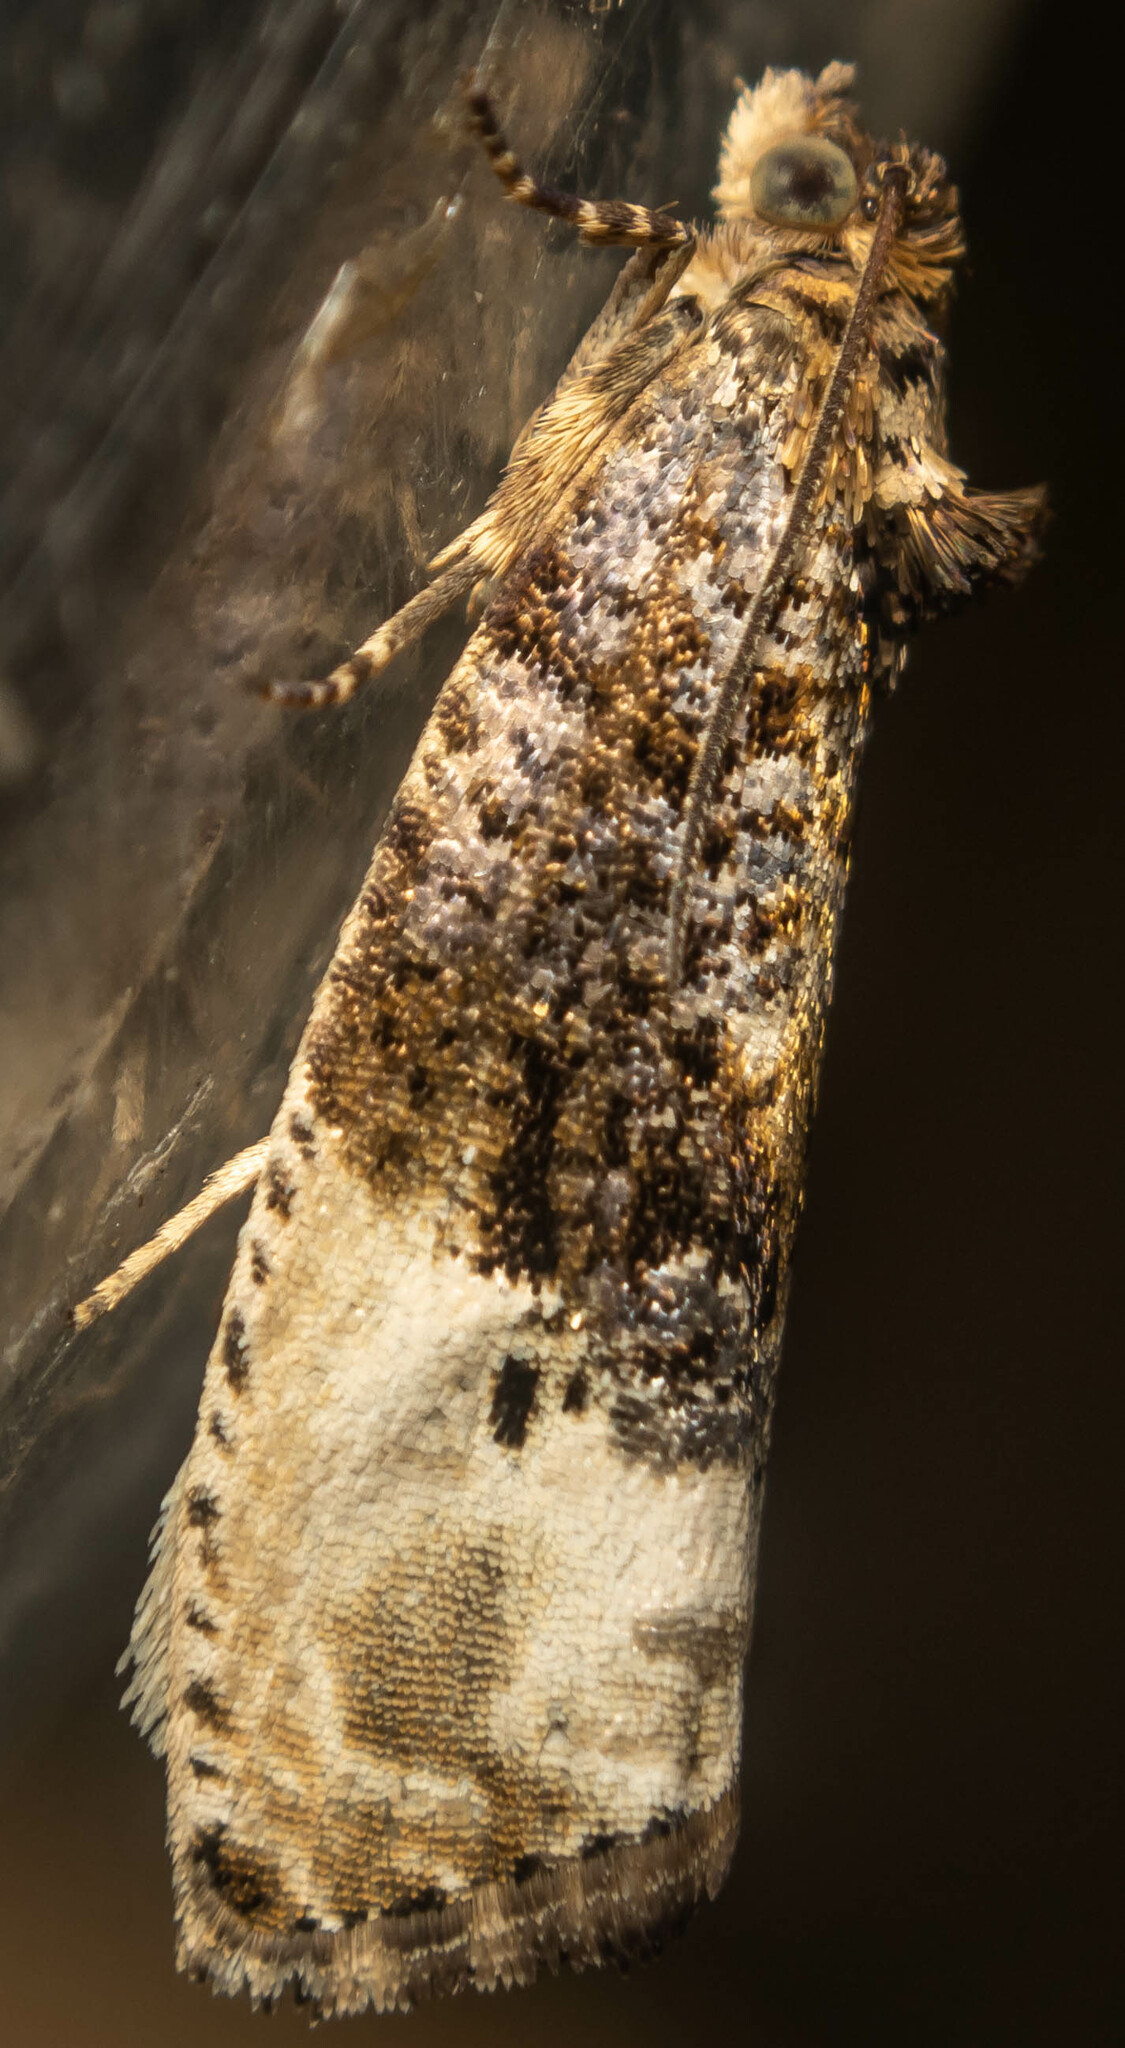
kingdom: Animalia
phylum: Arthropoda
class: Insecta
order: Lepidoptera
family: Tortricidae
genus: Hedya
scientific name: Hedya nubiferana
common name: Marbled orchard tortrix
